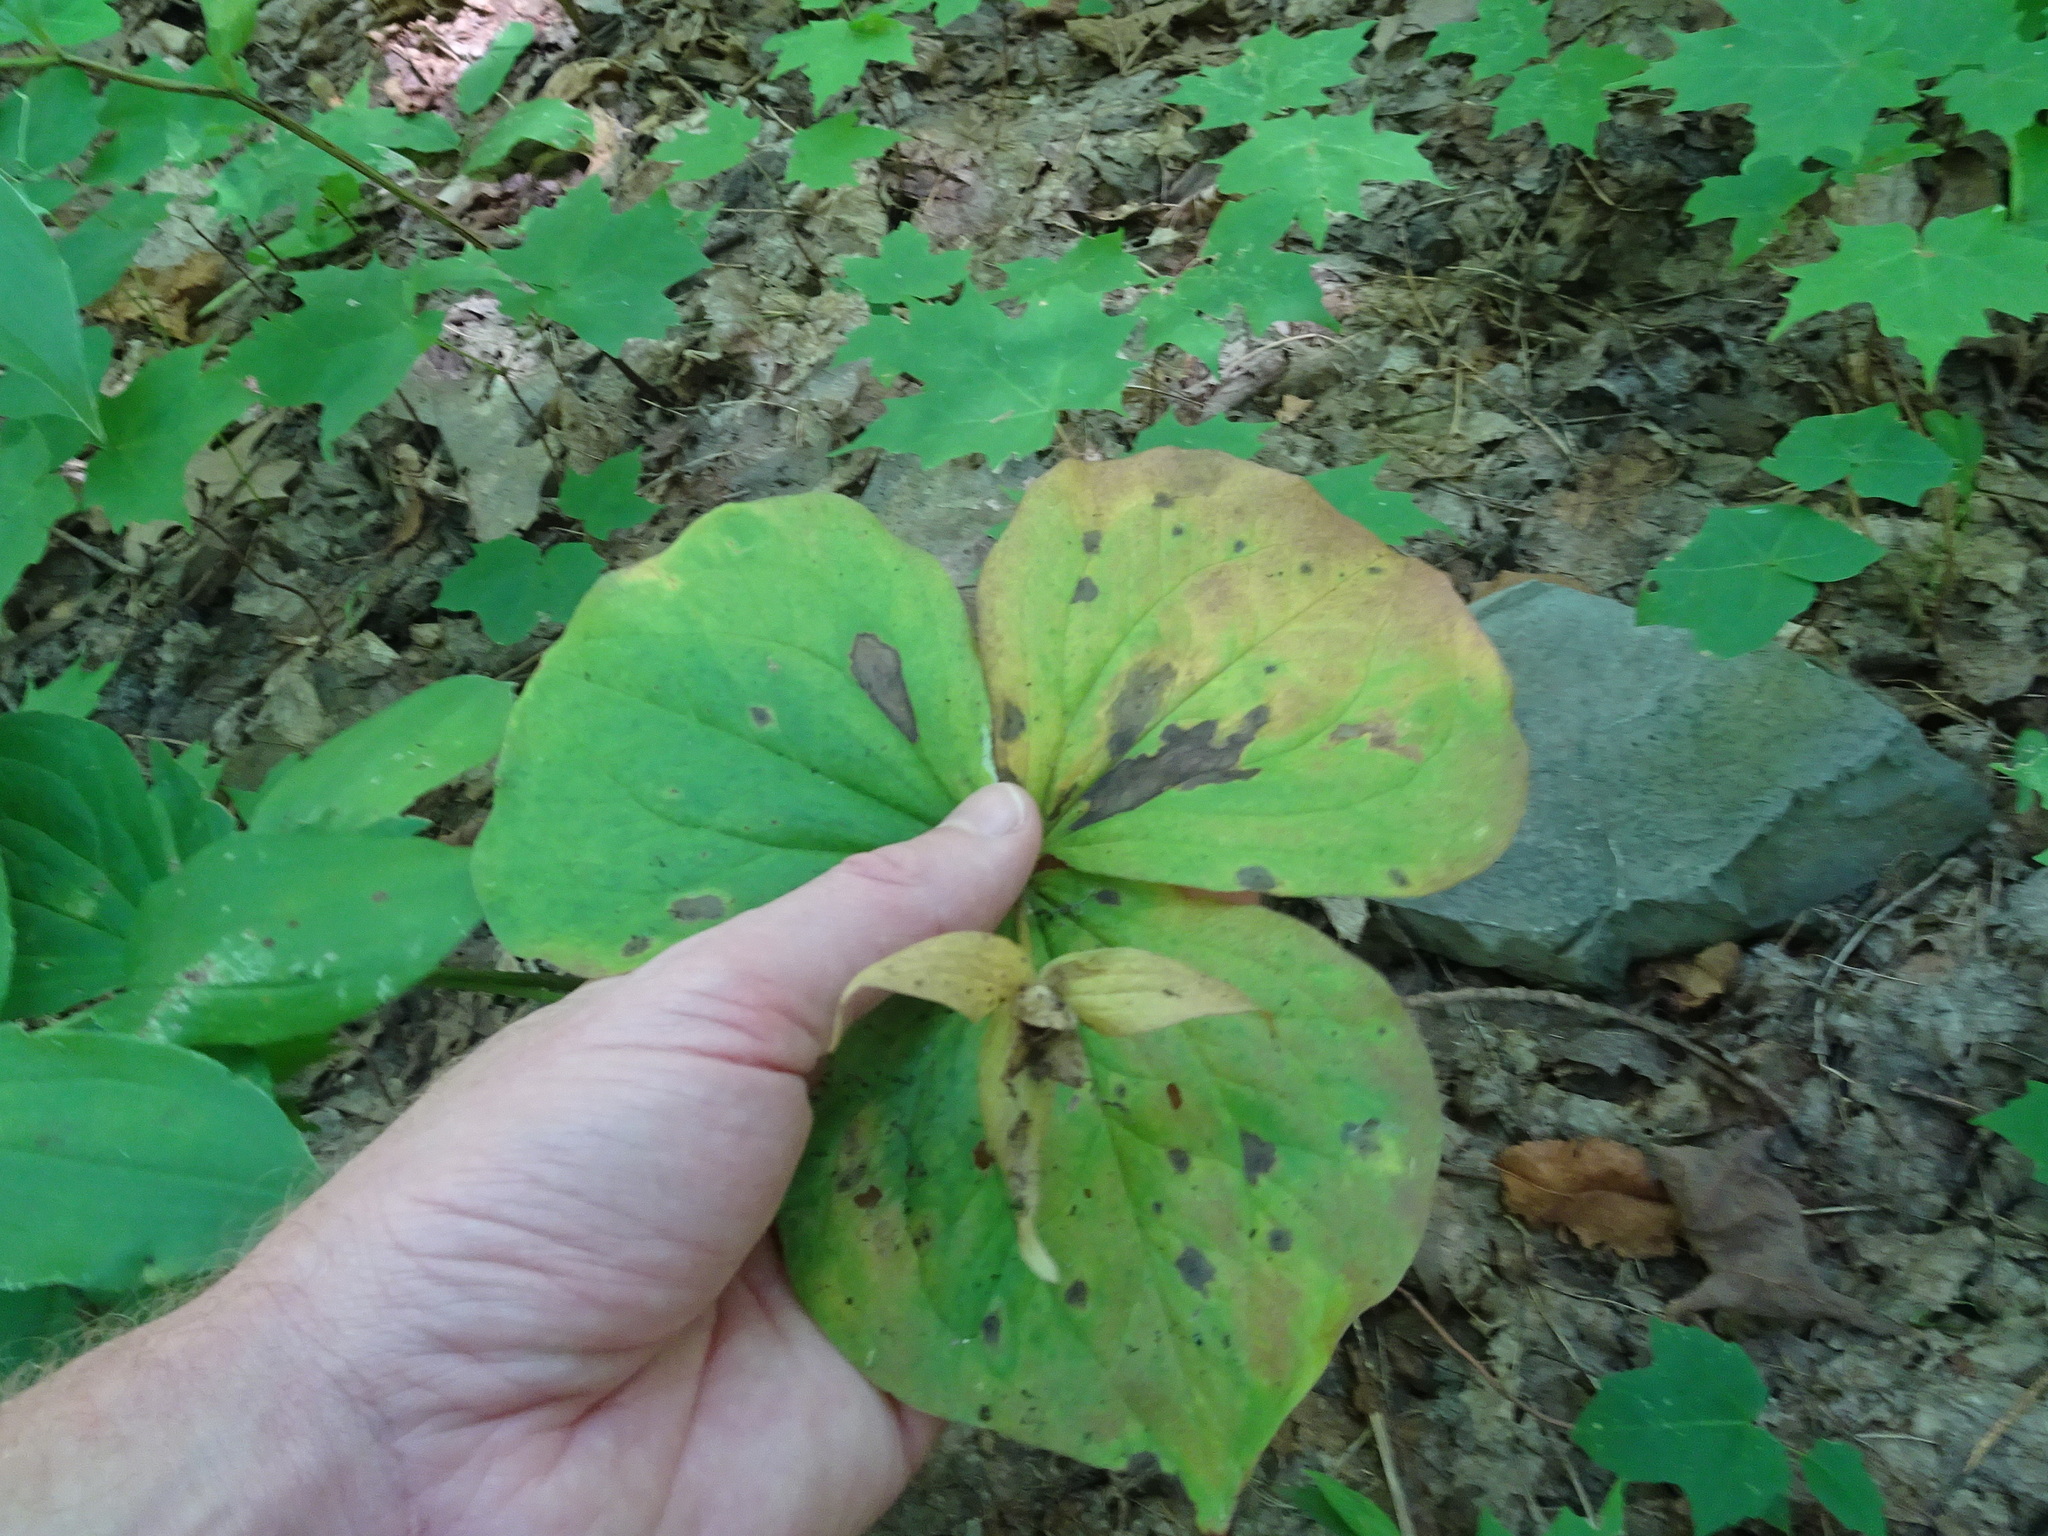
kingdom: Plantae
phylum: Tracheophyta
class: Liliopsida
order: Liliales
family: Melanthiaceae
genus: Trillium
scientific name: Trillium erectum
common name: Purple trillium
